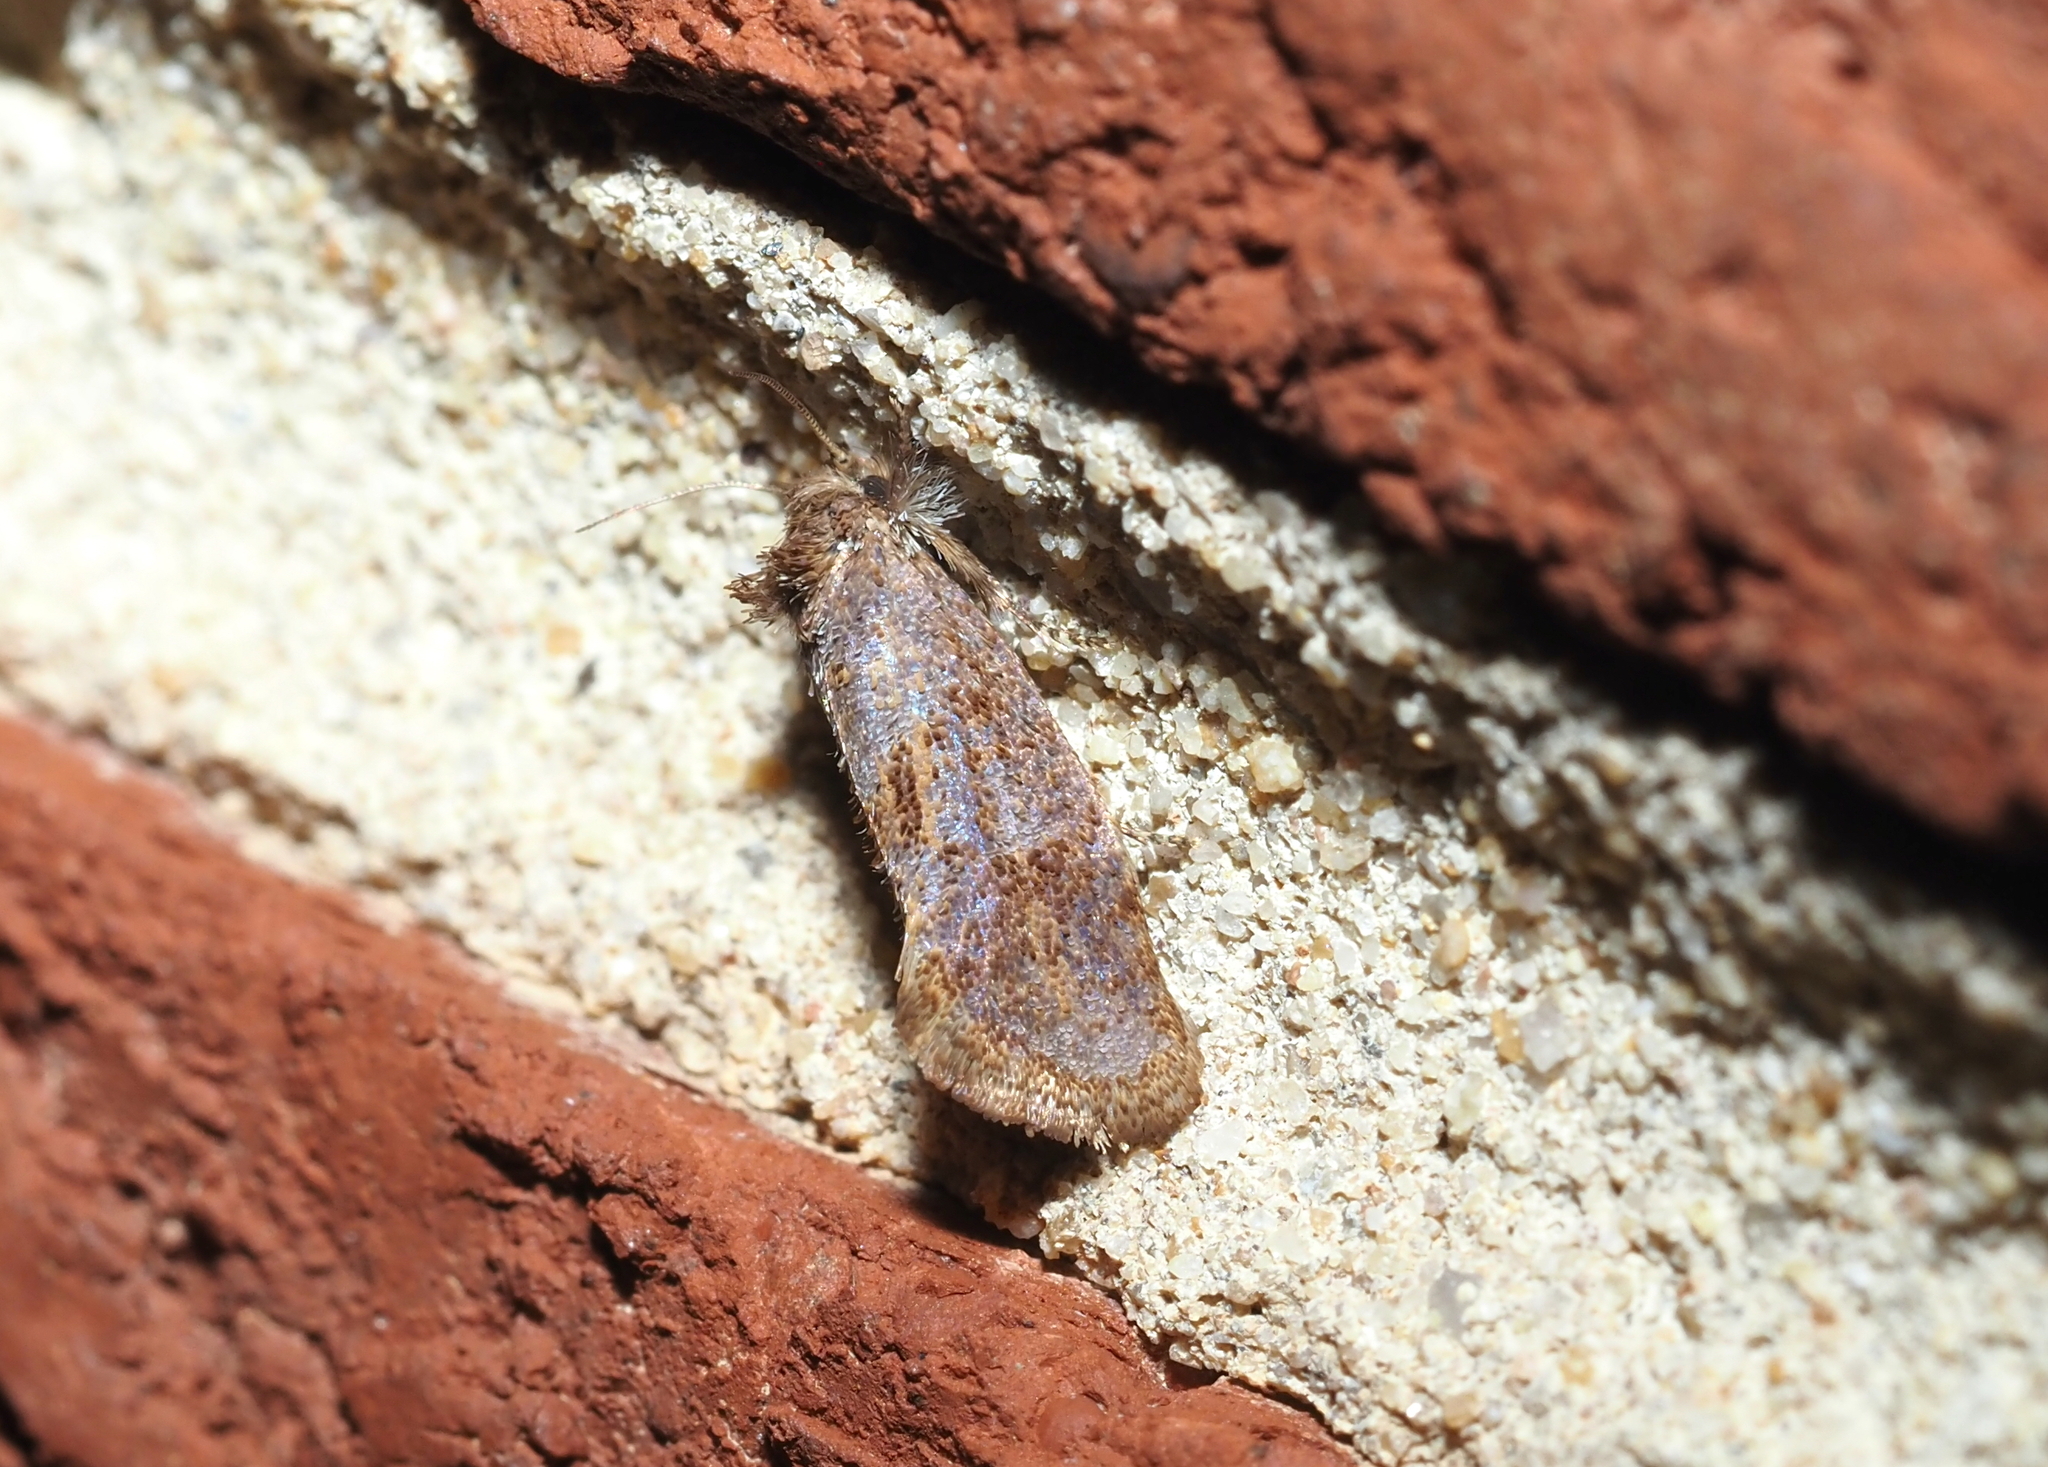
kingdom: Animalia
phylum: Arthropoda
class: Insecta
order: Lepidoptera
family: Tineidae
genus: Acrolophus
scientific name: Acrolophus panamae
